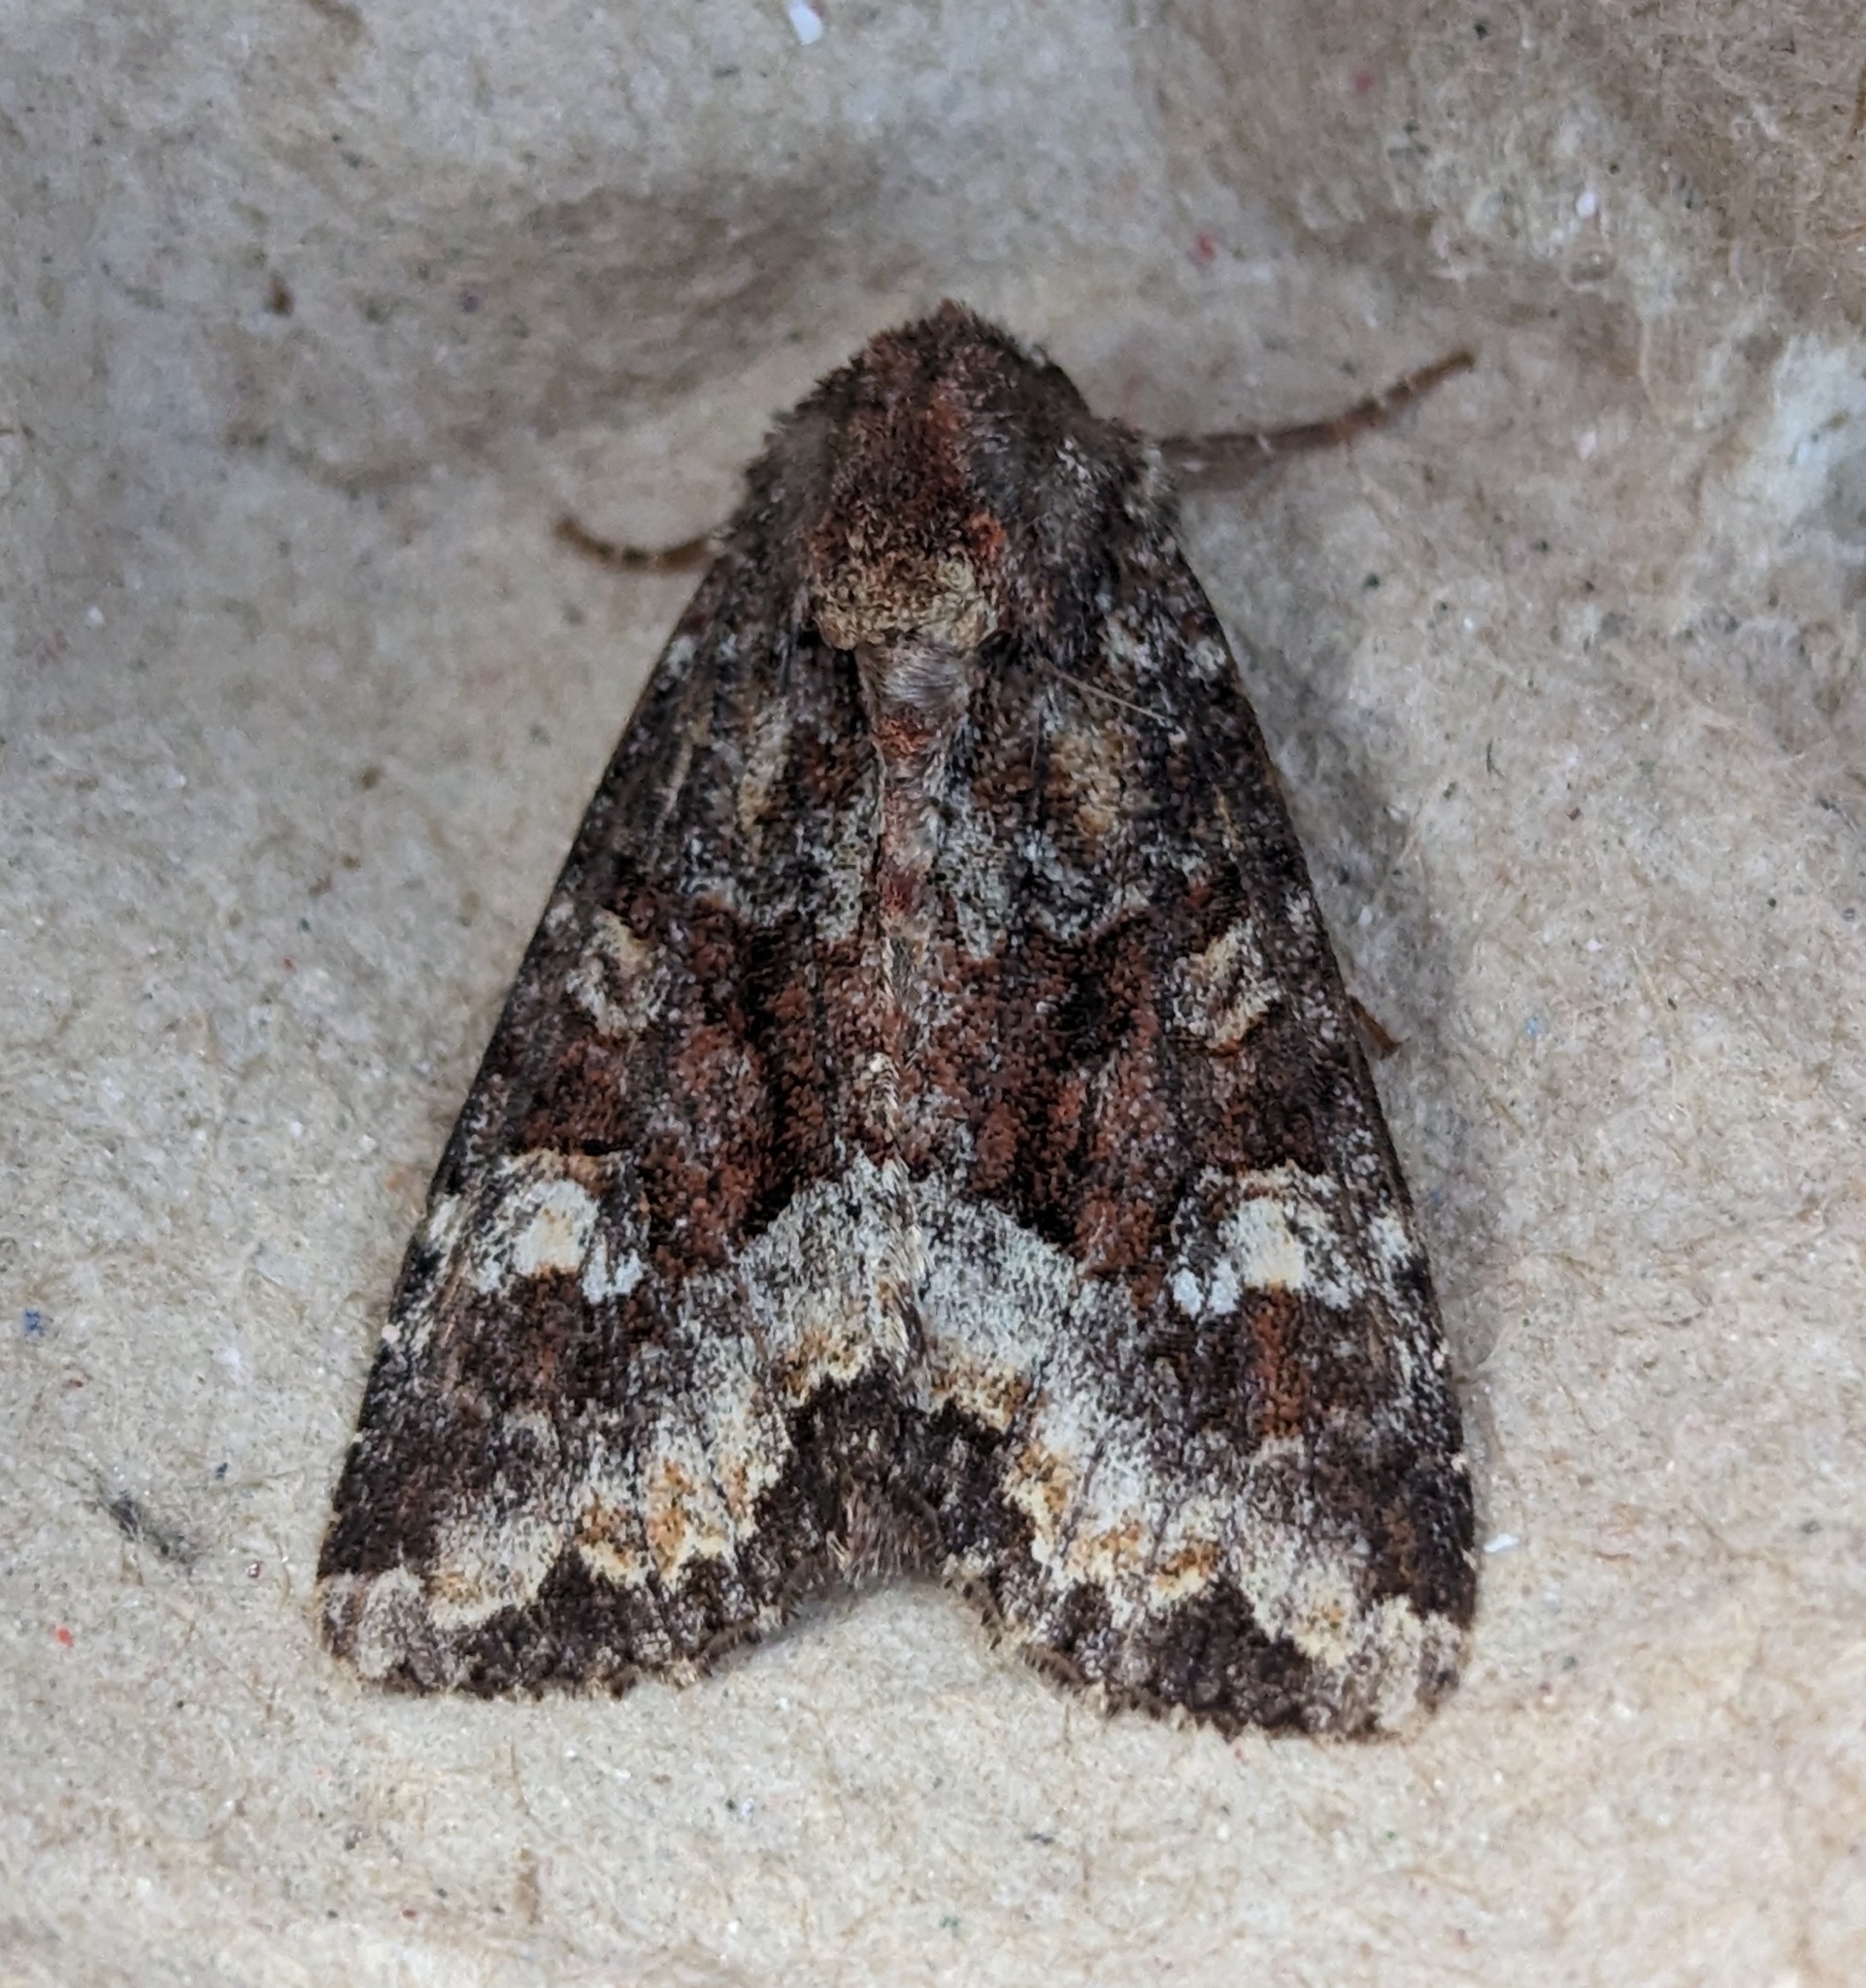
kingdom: Animalia
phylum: Arthropoda
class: Insecta
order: Lepidoptera
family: Noctuidae
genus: Apamea
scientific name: Apamea amputatrix
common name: Yellow-headed cutworm moth
